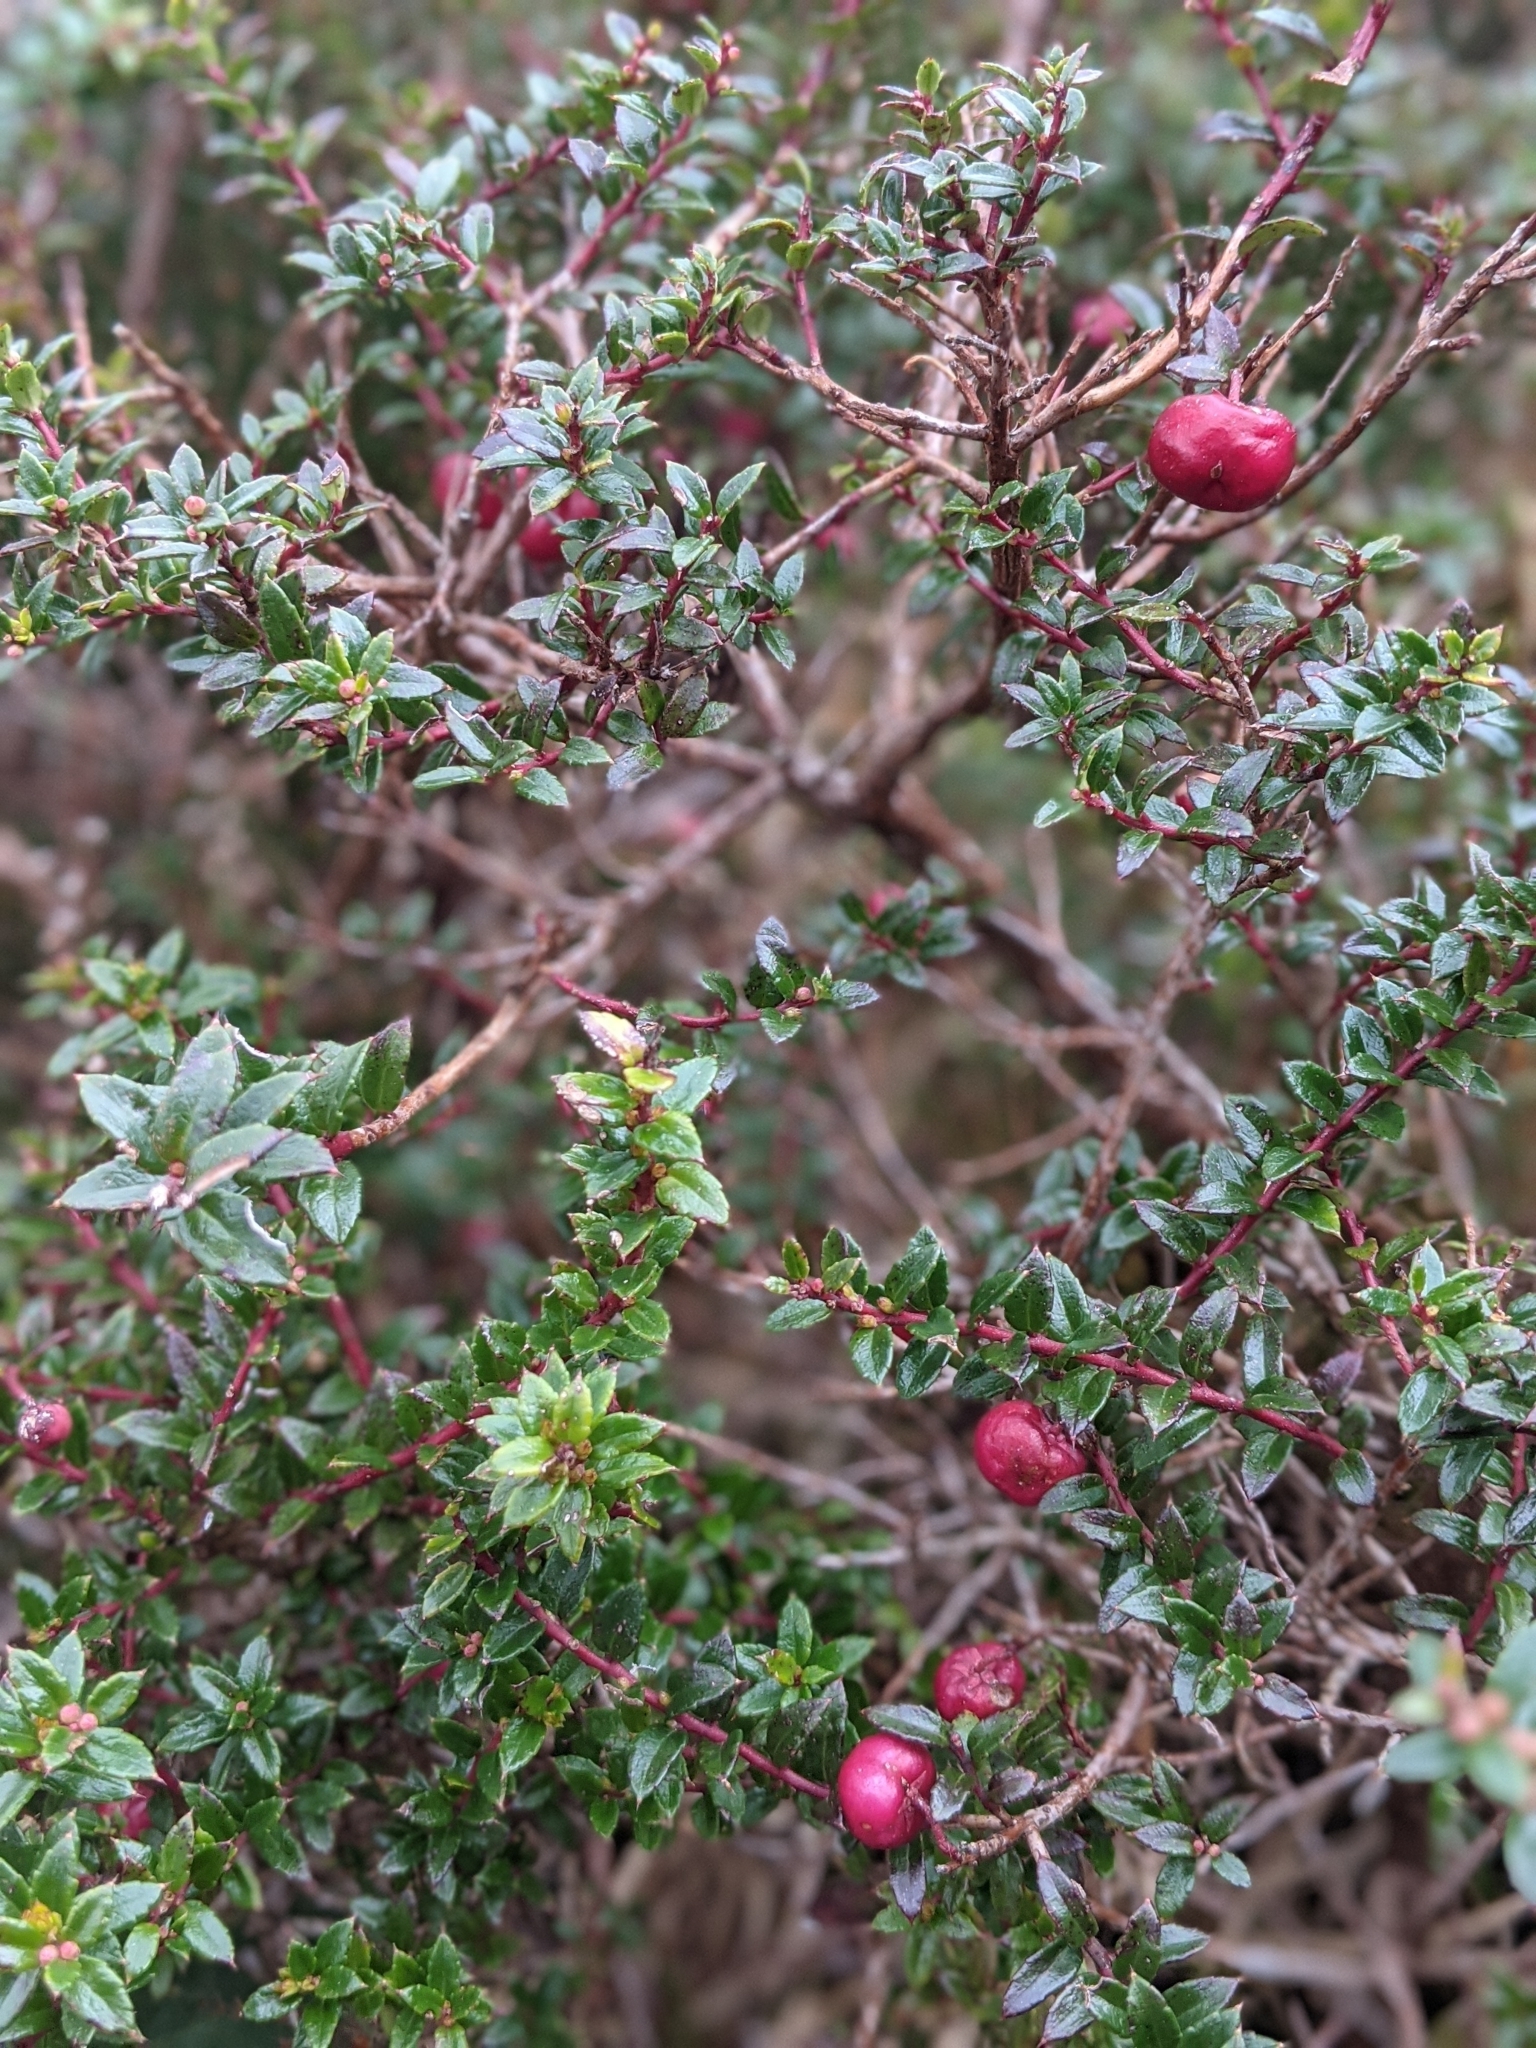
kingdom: Plantae
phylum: Tracheophyta
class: Magnoliopsida
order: Ericales
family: Ericaceae
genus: Gaultheria
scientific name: Gaultheria mucronata
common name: Prickly heath
